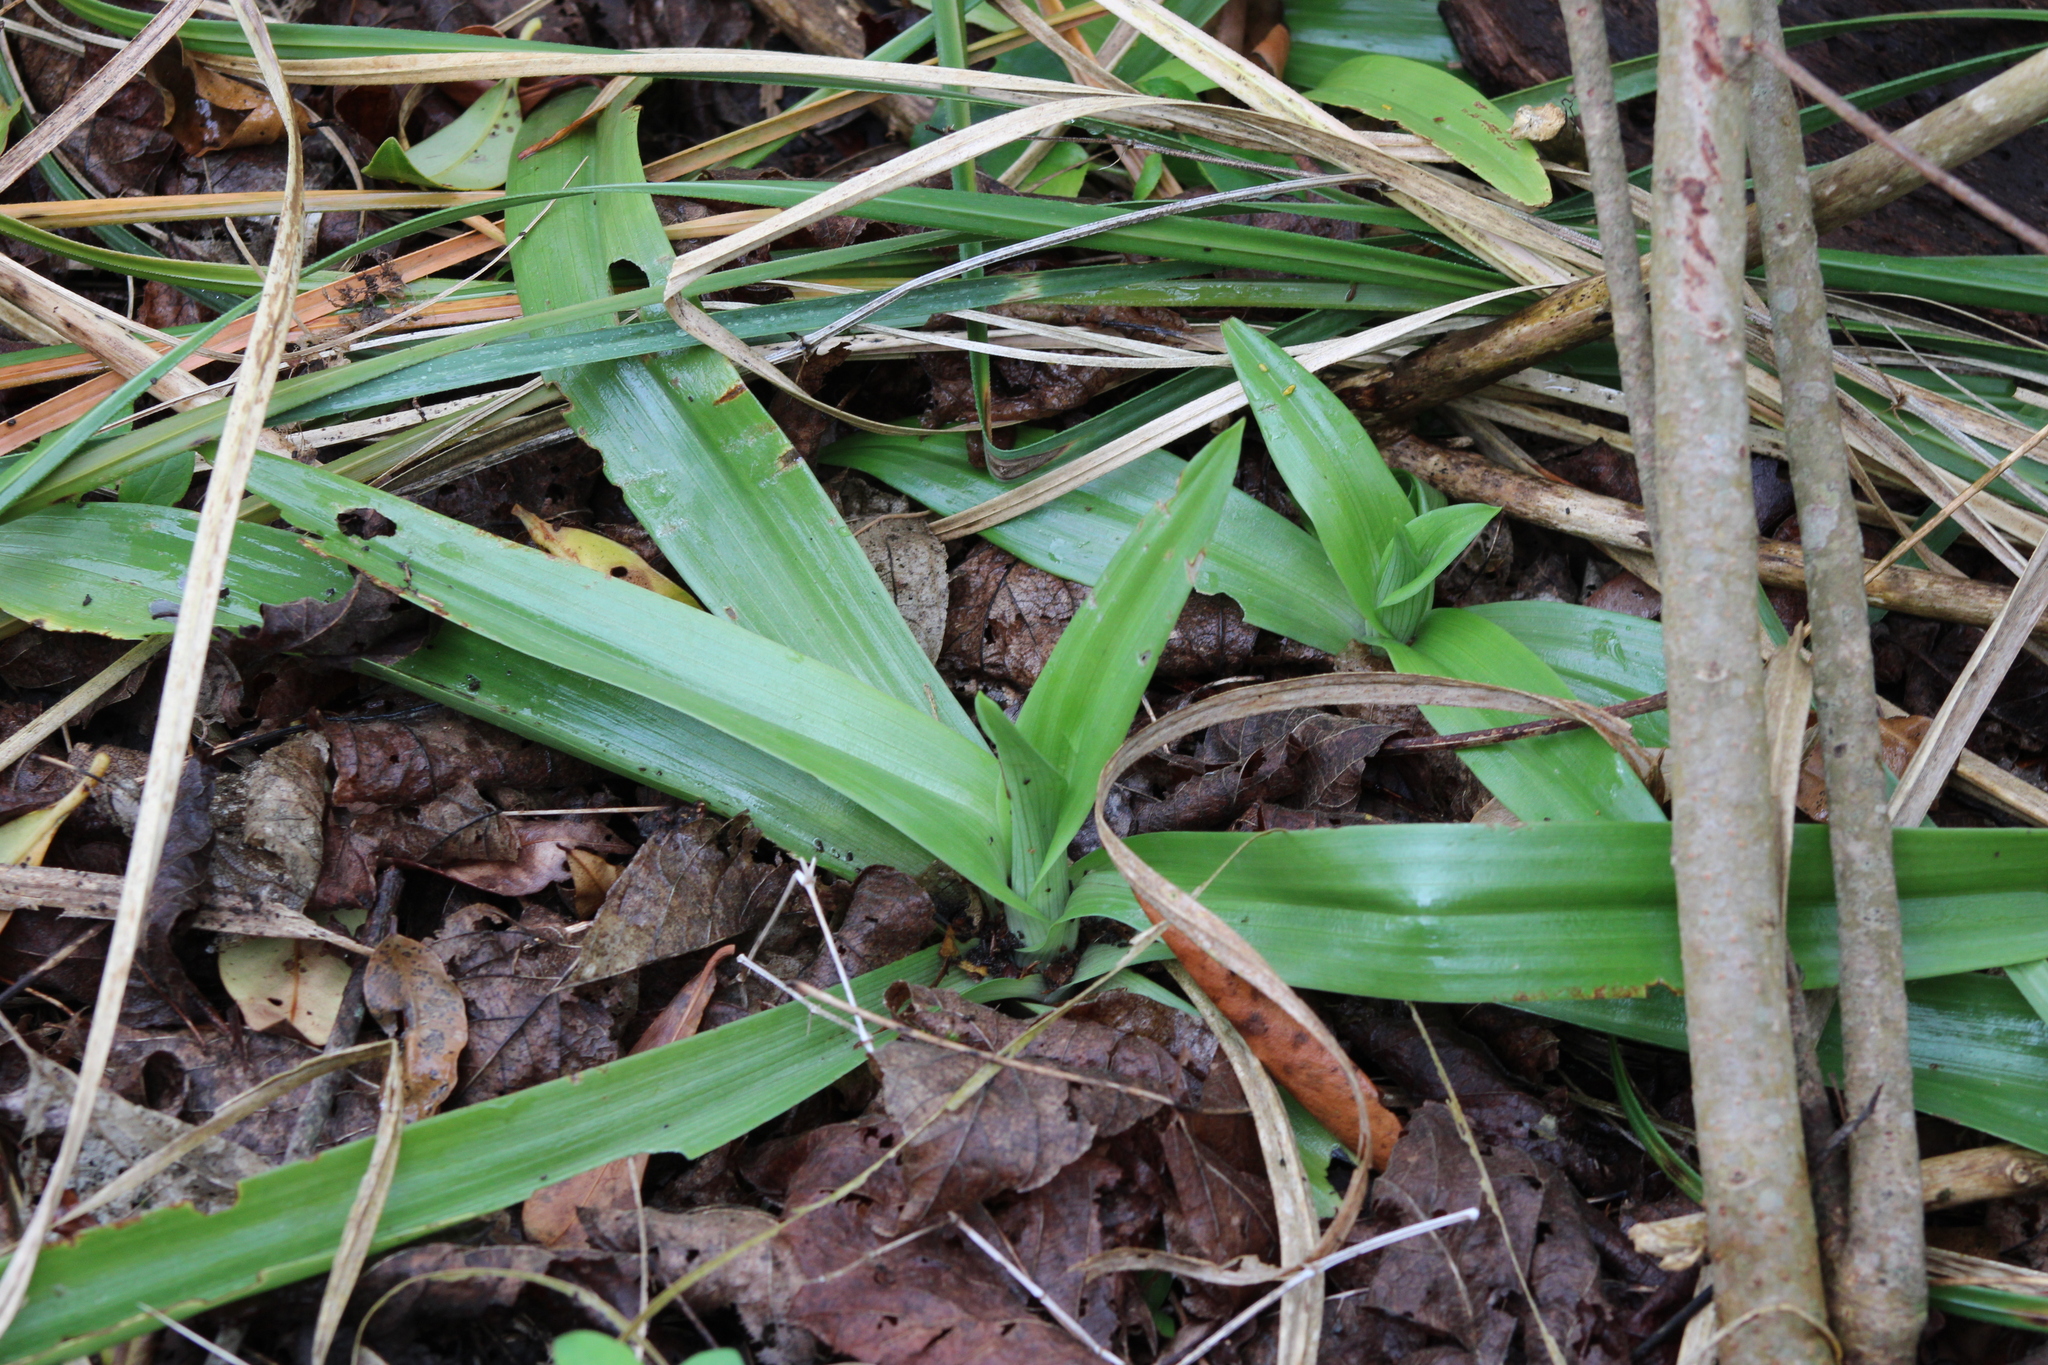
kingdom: Plantae
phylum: Tracheophyta
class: Liliopsida
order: Asparagales
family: Orchidaceae
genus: Chloraea
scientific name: Chloraea membranacea
